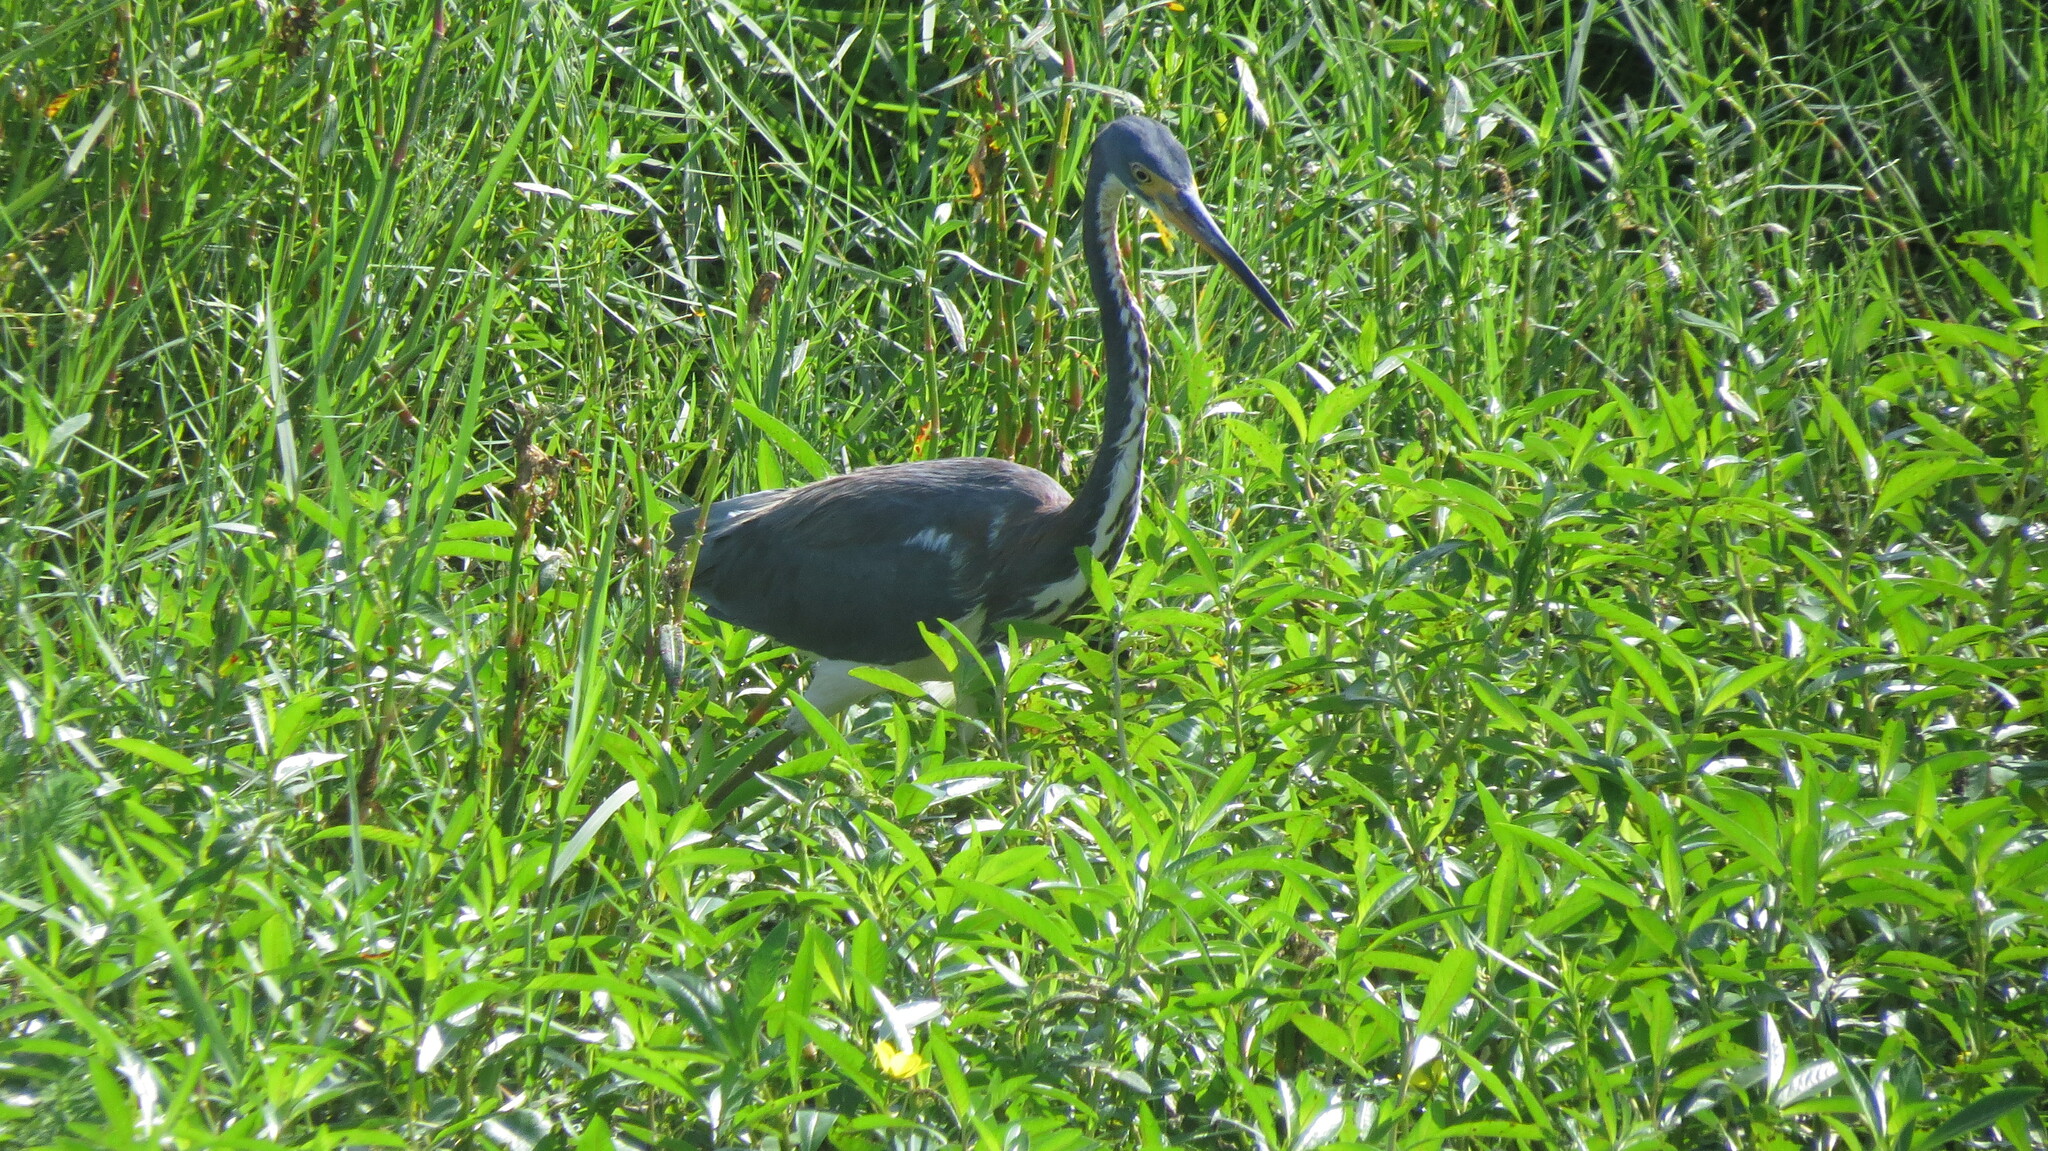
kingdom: Animalia
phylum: Chordata
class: Aves
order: Pelecaniformes
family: Ardeidae
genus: Egretta
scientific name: Egretta tricolor
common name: Tricolored heron
